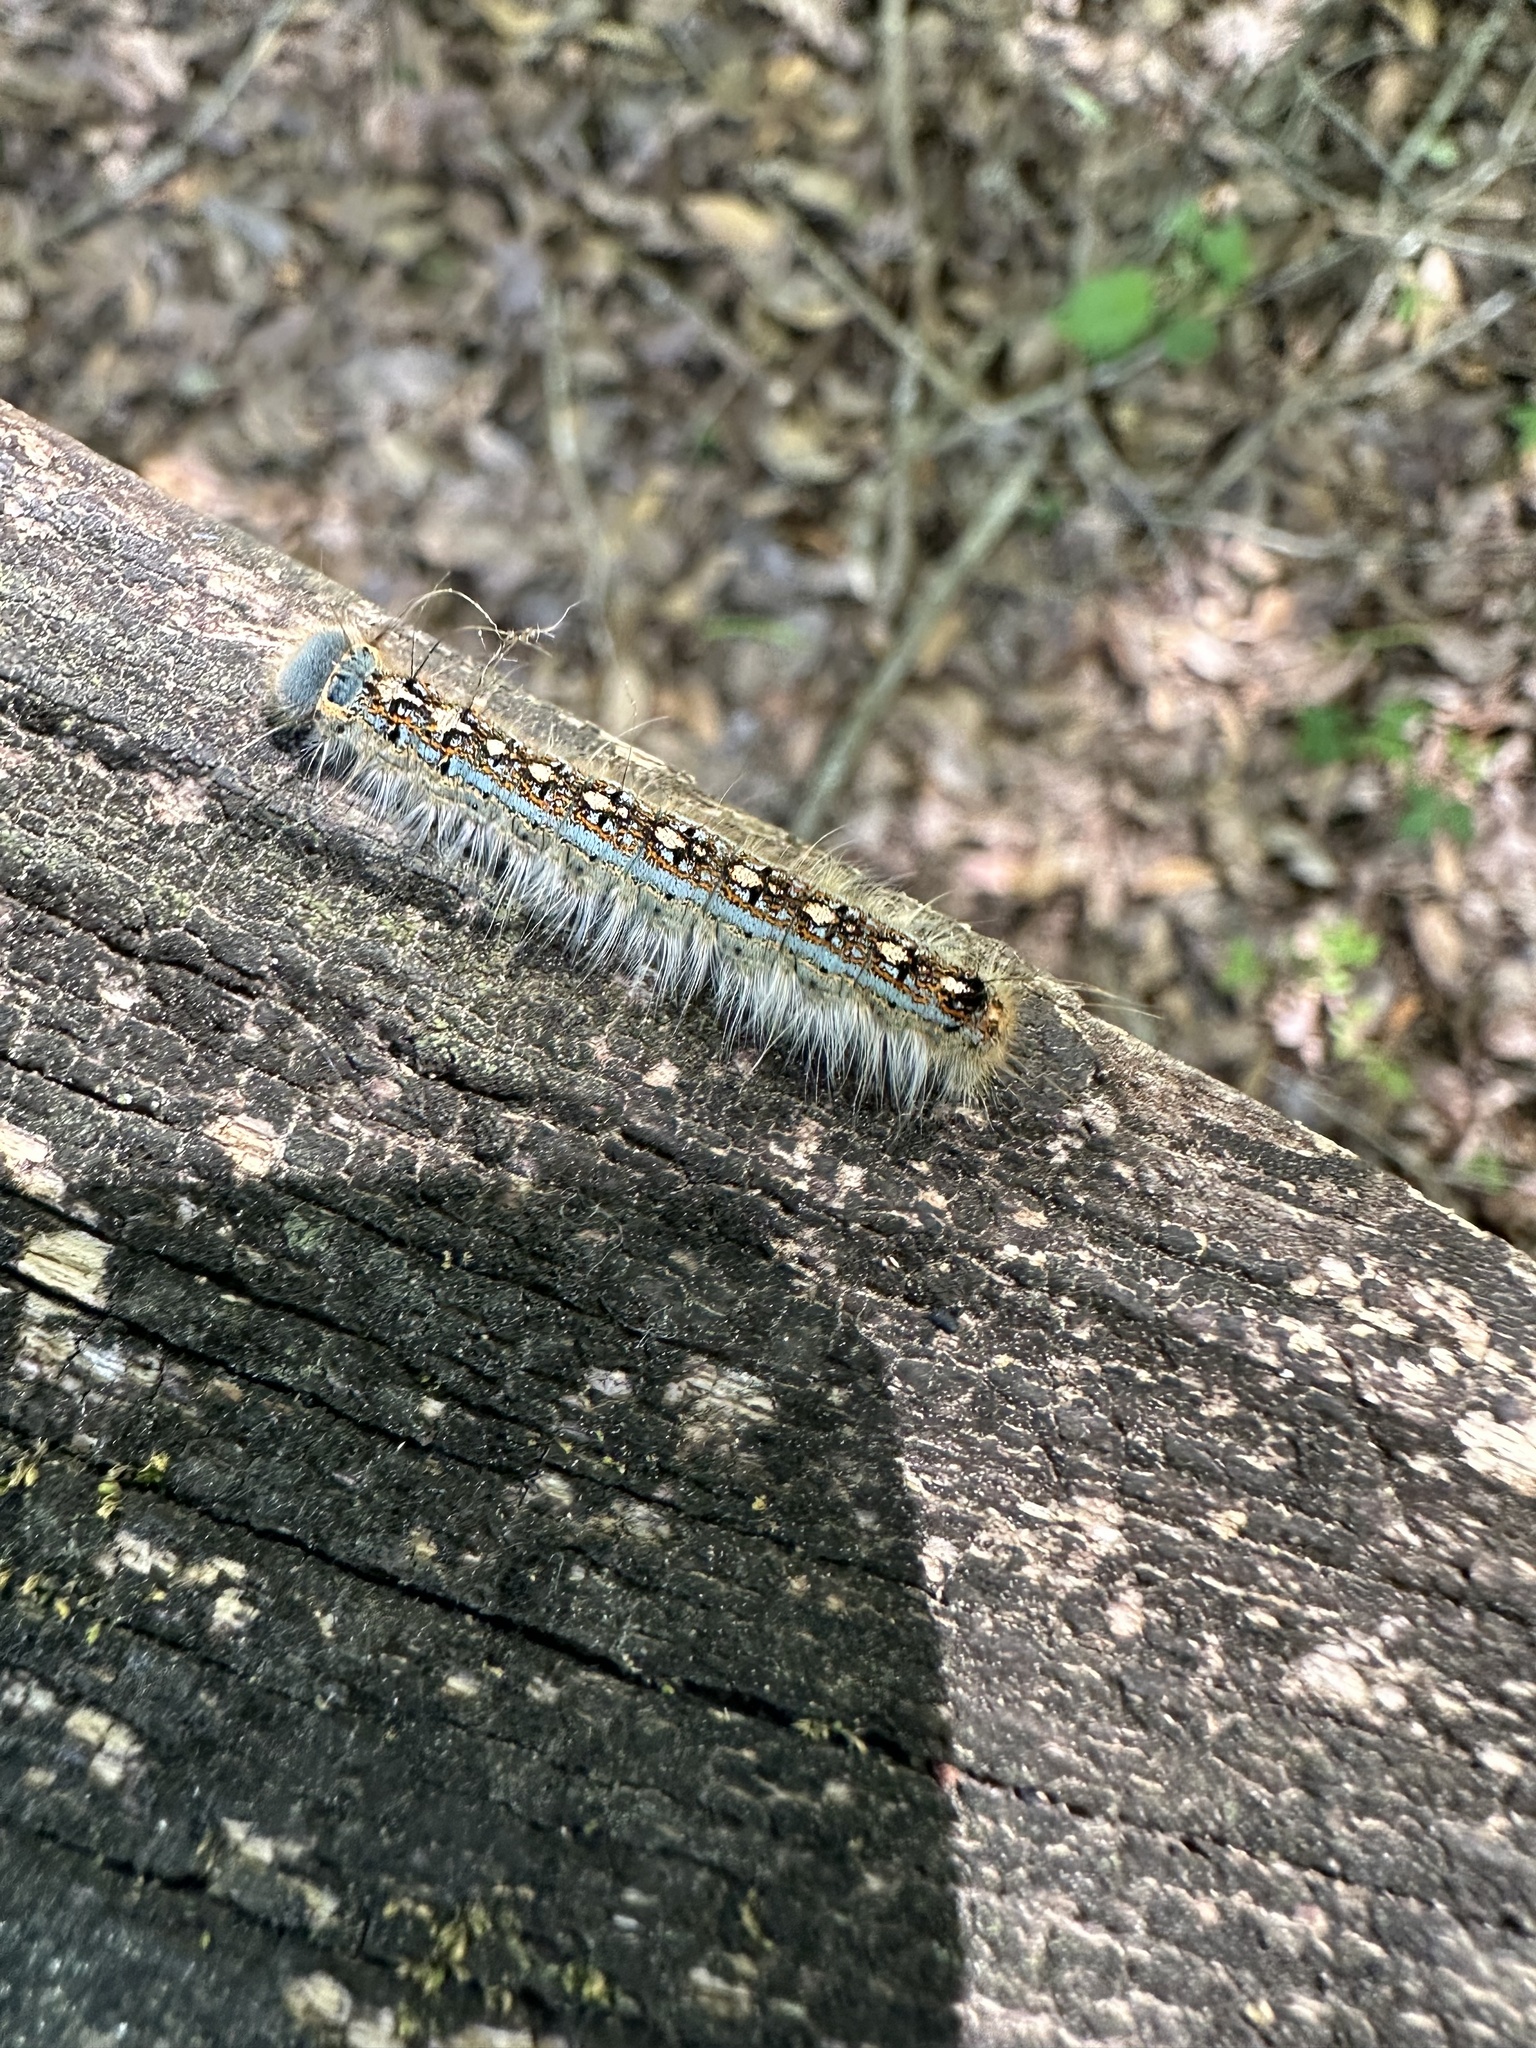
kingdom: Animalia
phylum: Arthropoda
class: Insecta
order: Lepidoptera
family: Lasiocampidae
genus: Malacosoma
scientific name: Malacosoma disstria
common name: Forest tent caterpillar
